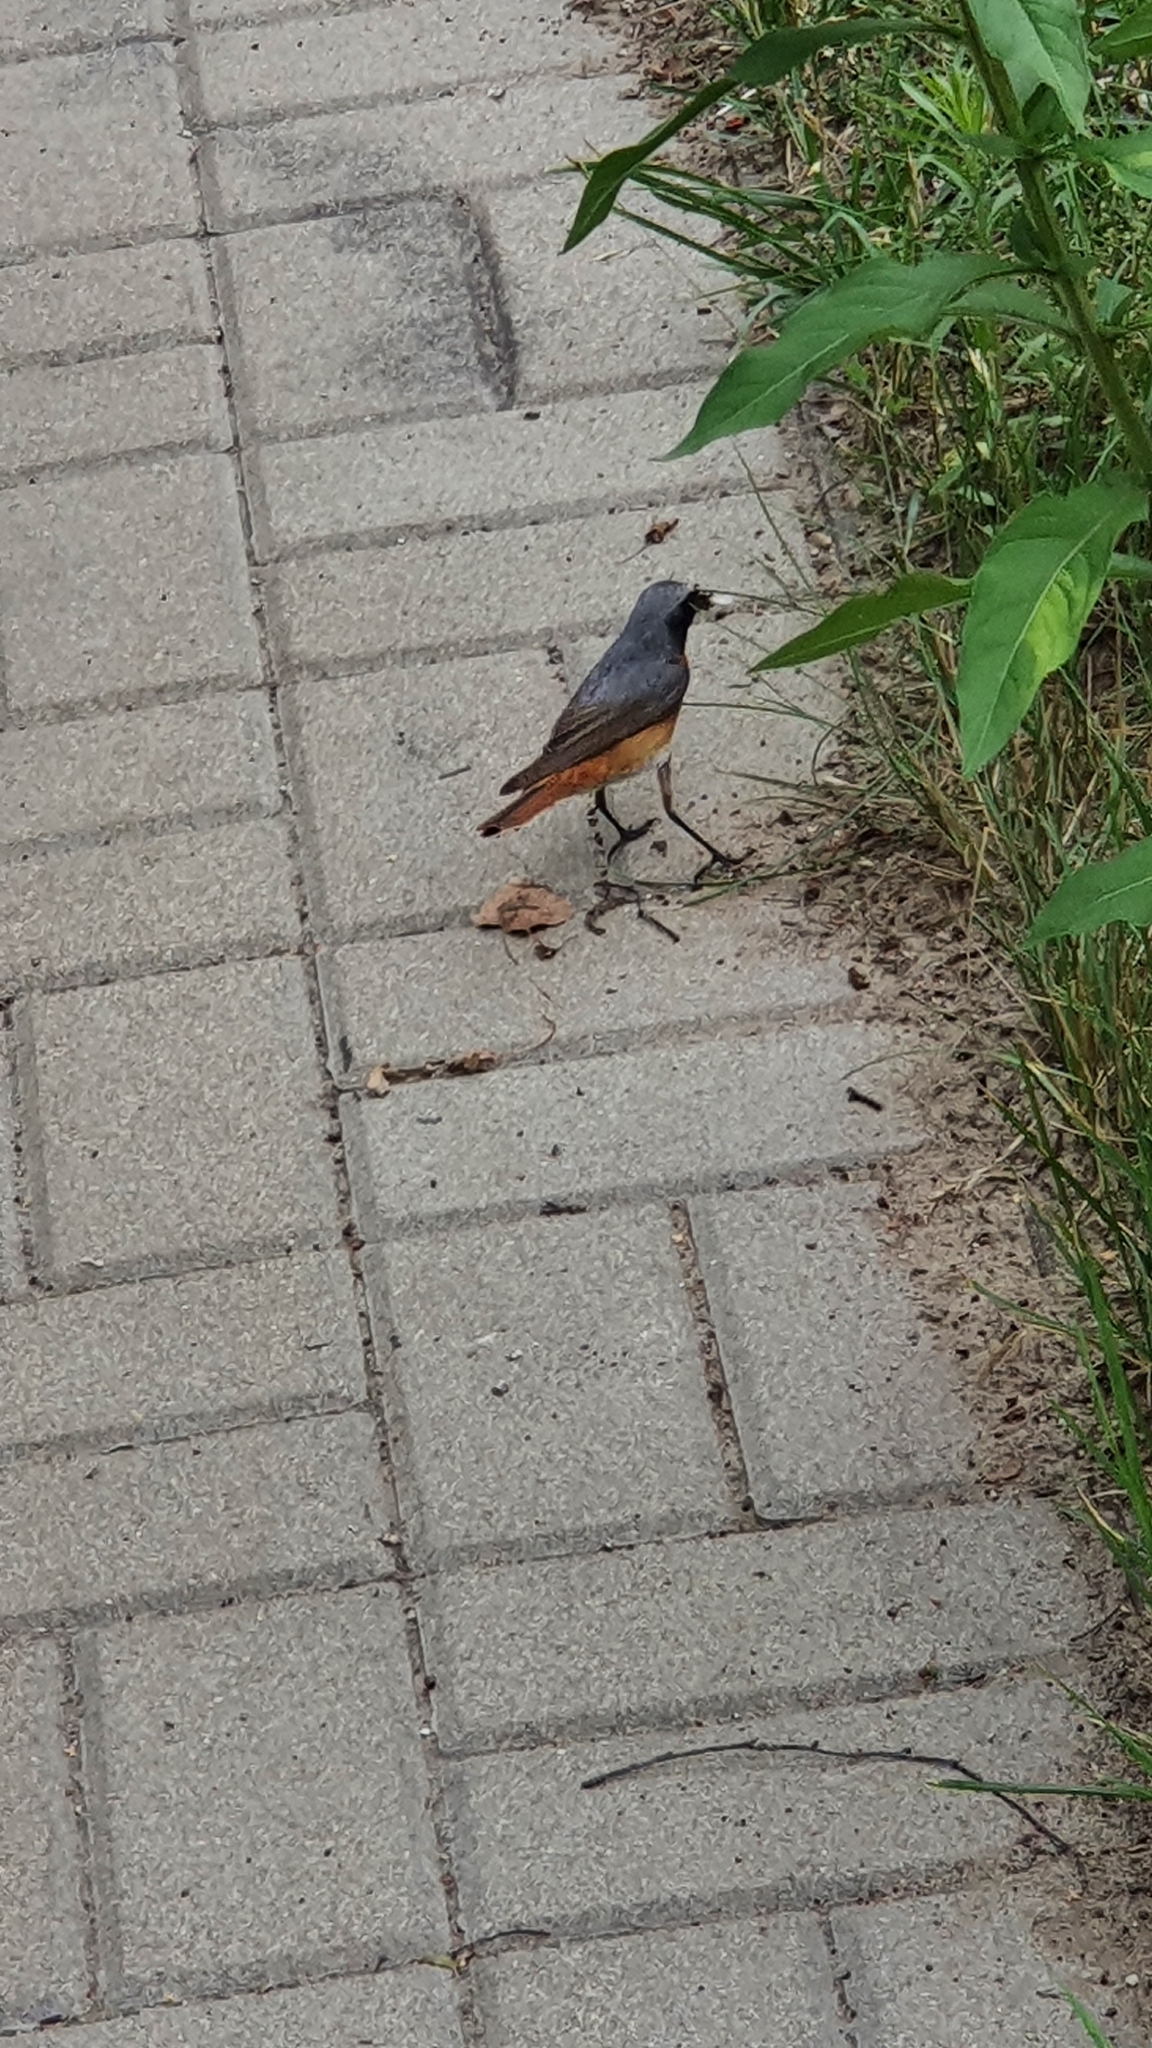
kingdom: Animalia
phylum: Chordata
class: Aves
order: Passeriformes
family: Muscicapidae
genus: Phoenicurus
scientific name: Phoenicurus phoenicurus
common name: Common redstart
